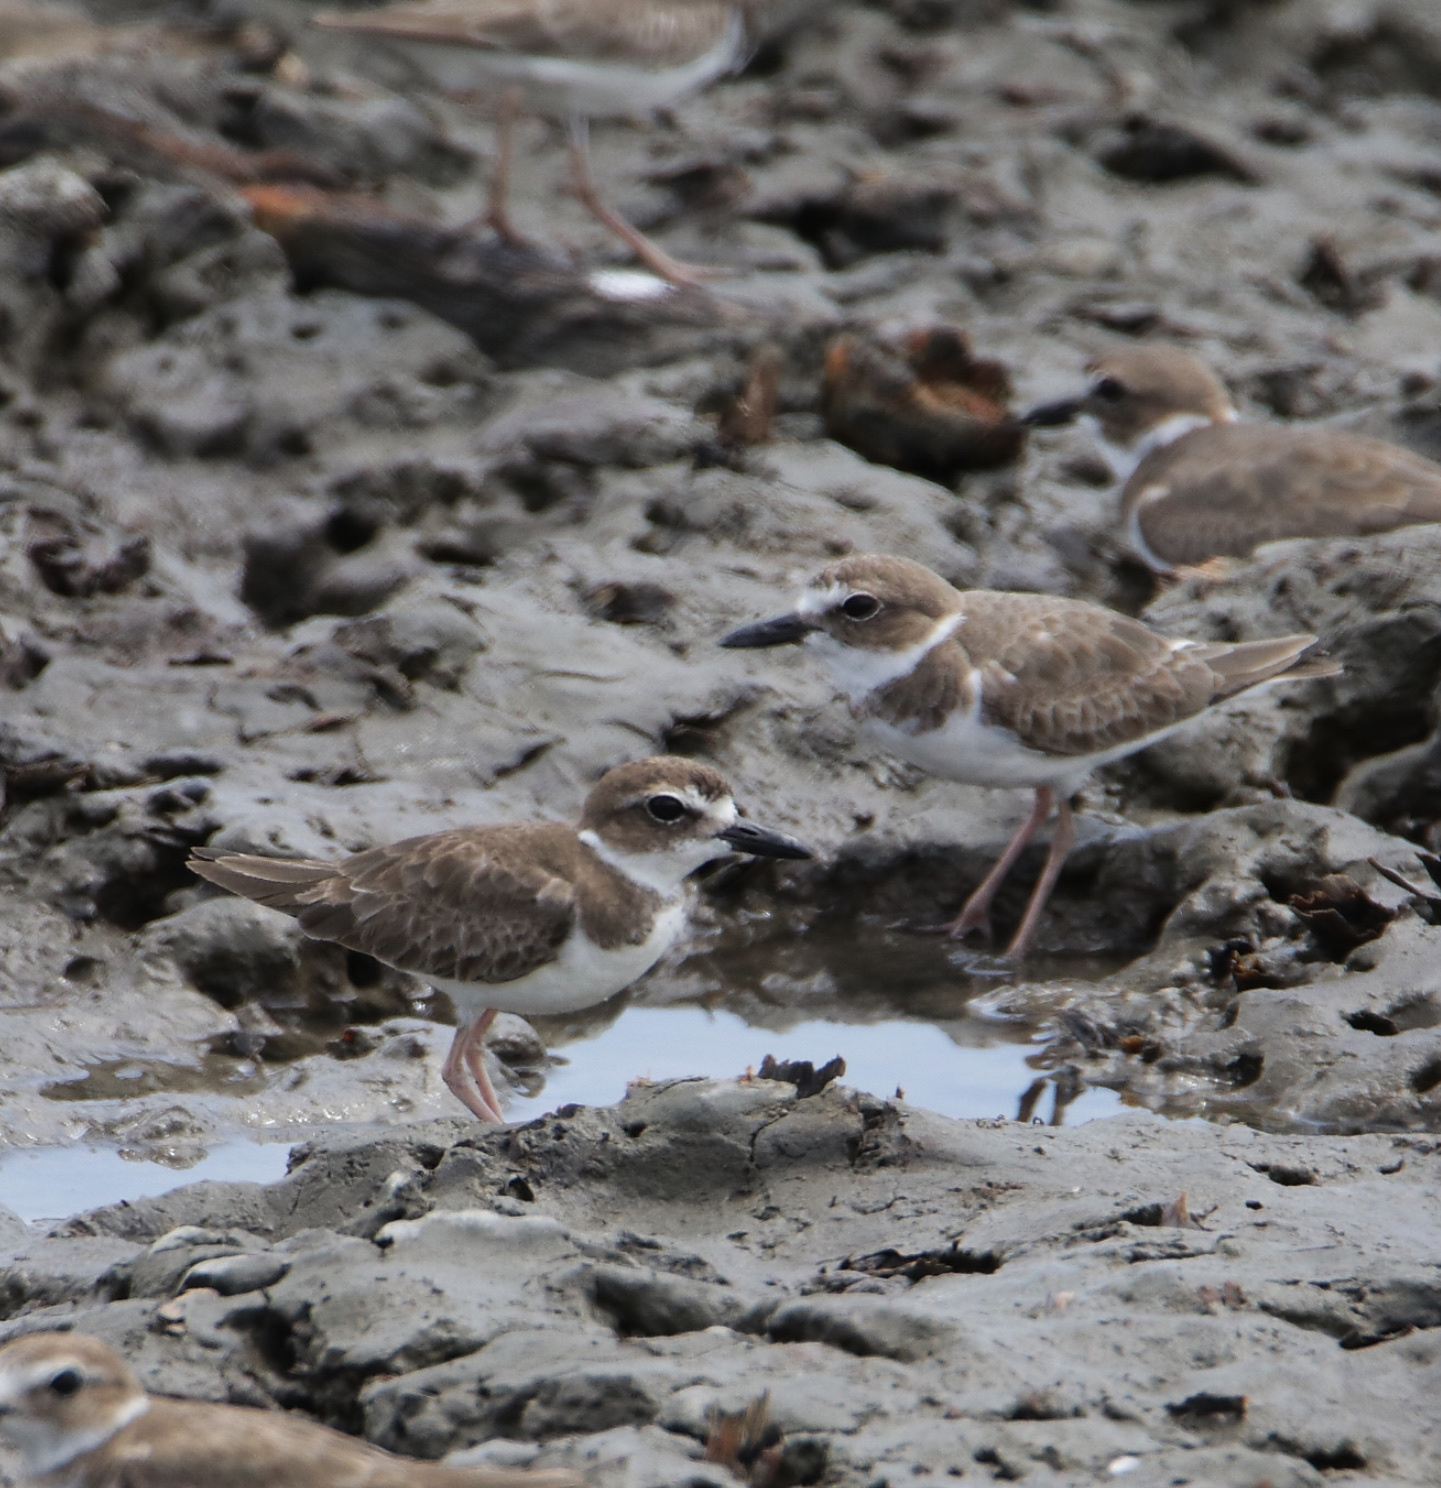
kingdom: Animalia
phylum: Chordata
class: Aves
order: Charadriiformes
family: Charadriidae
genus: Anarhynchus
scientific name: Anarhynchus
